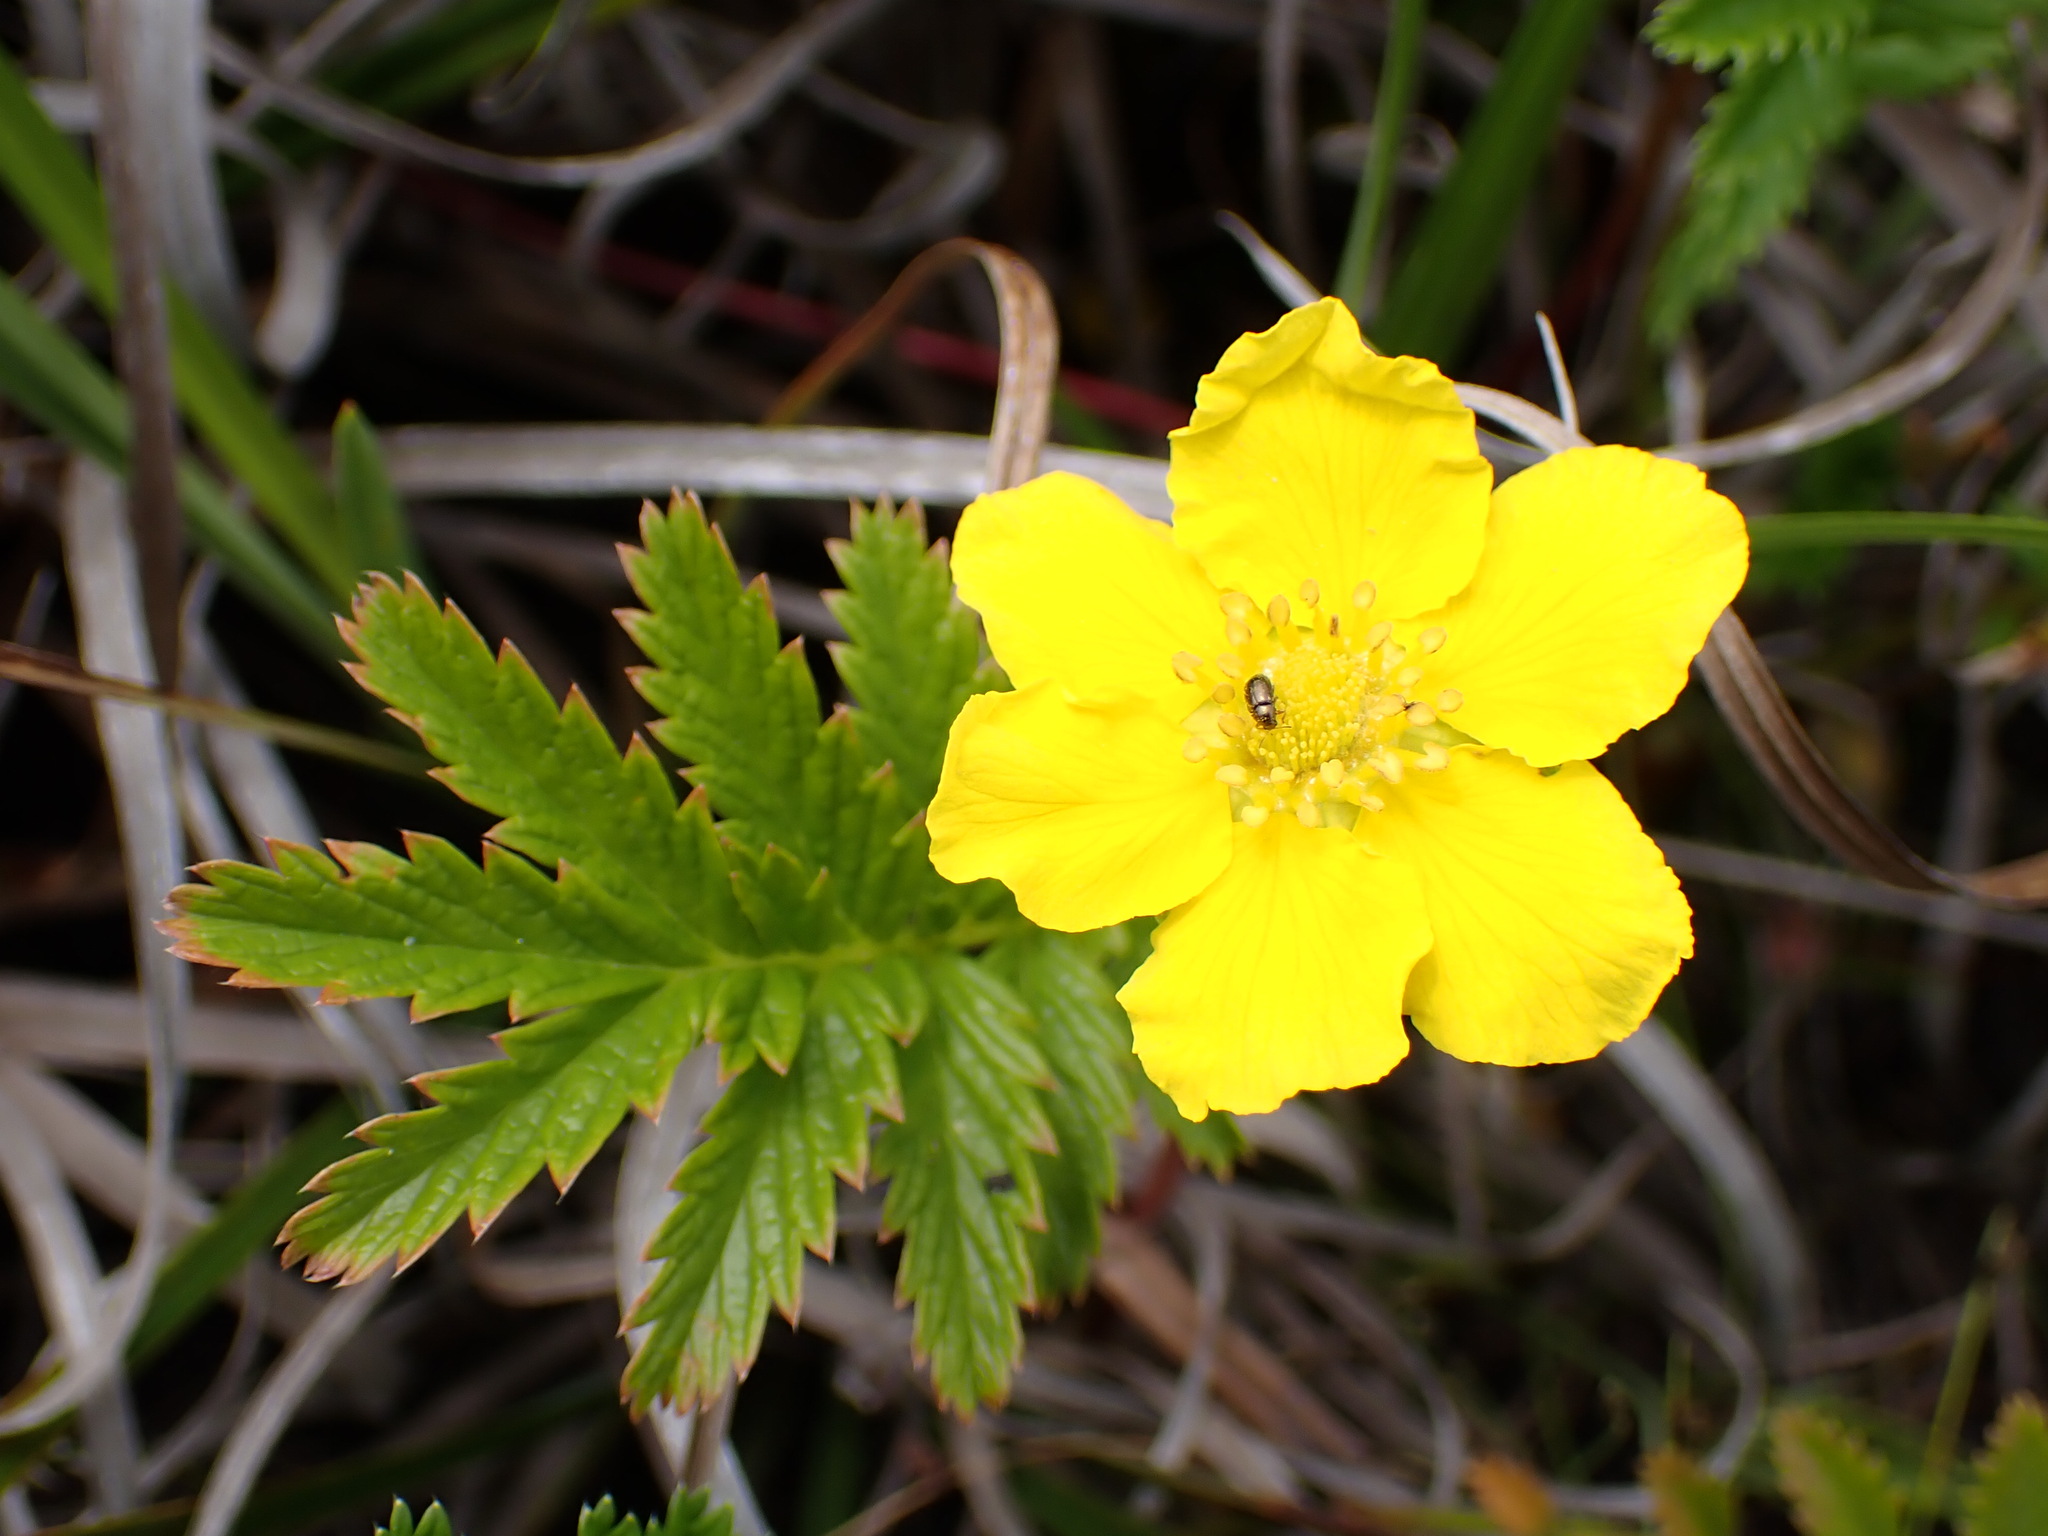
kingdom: Plantae
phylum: Tracheophyta
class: Magnoliopsida
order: Rosales
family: Rosaceae
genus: Argentina
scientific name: Argentina anserina
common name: Common silverweed
